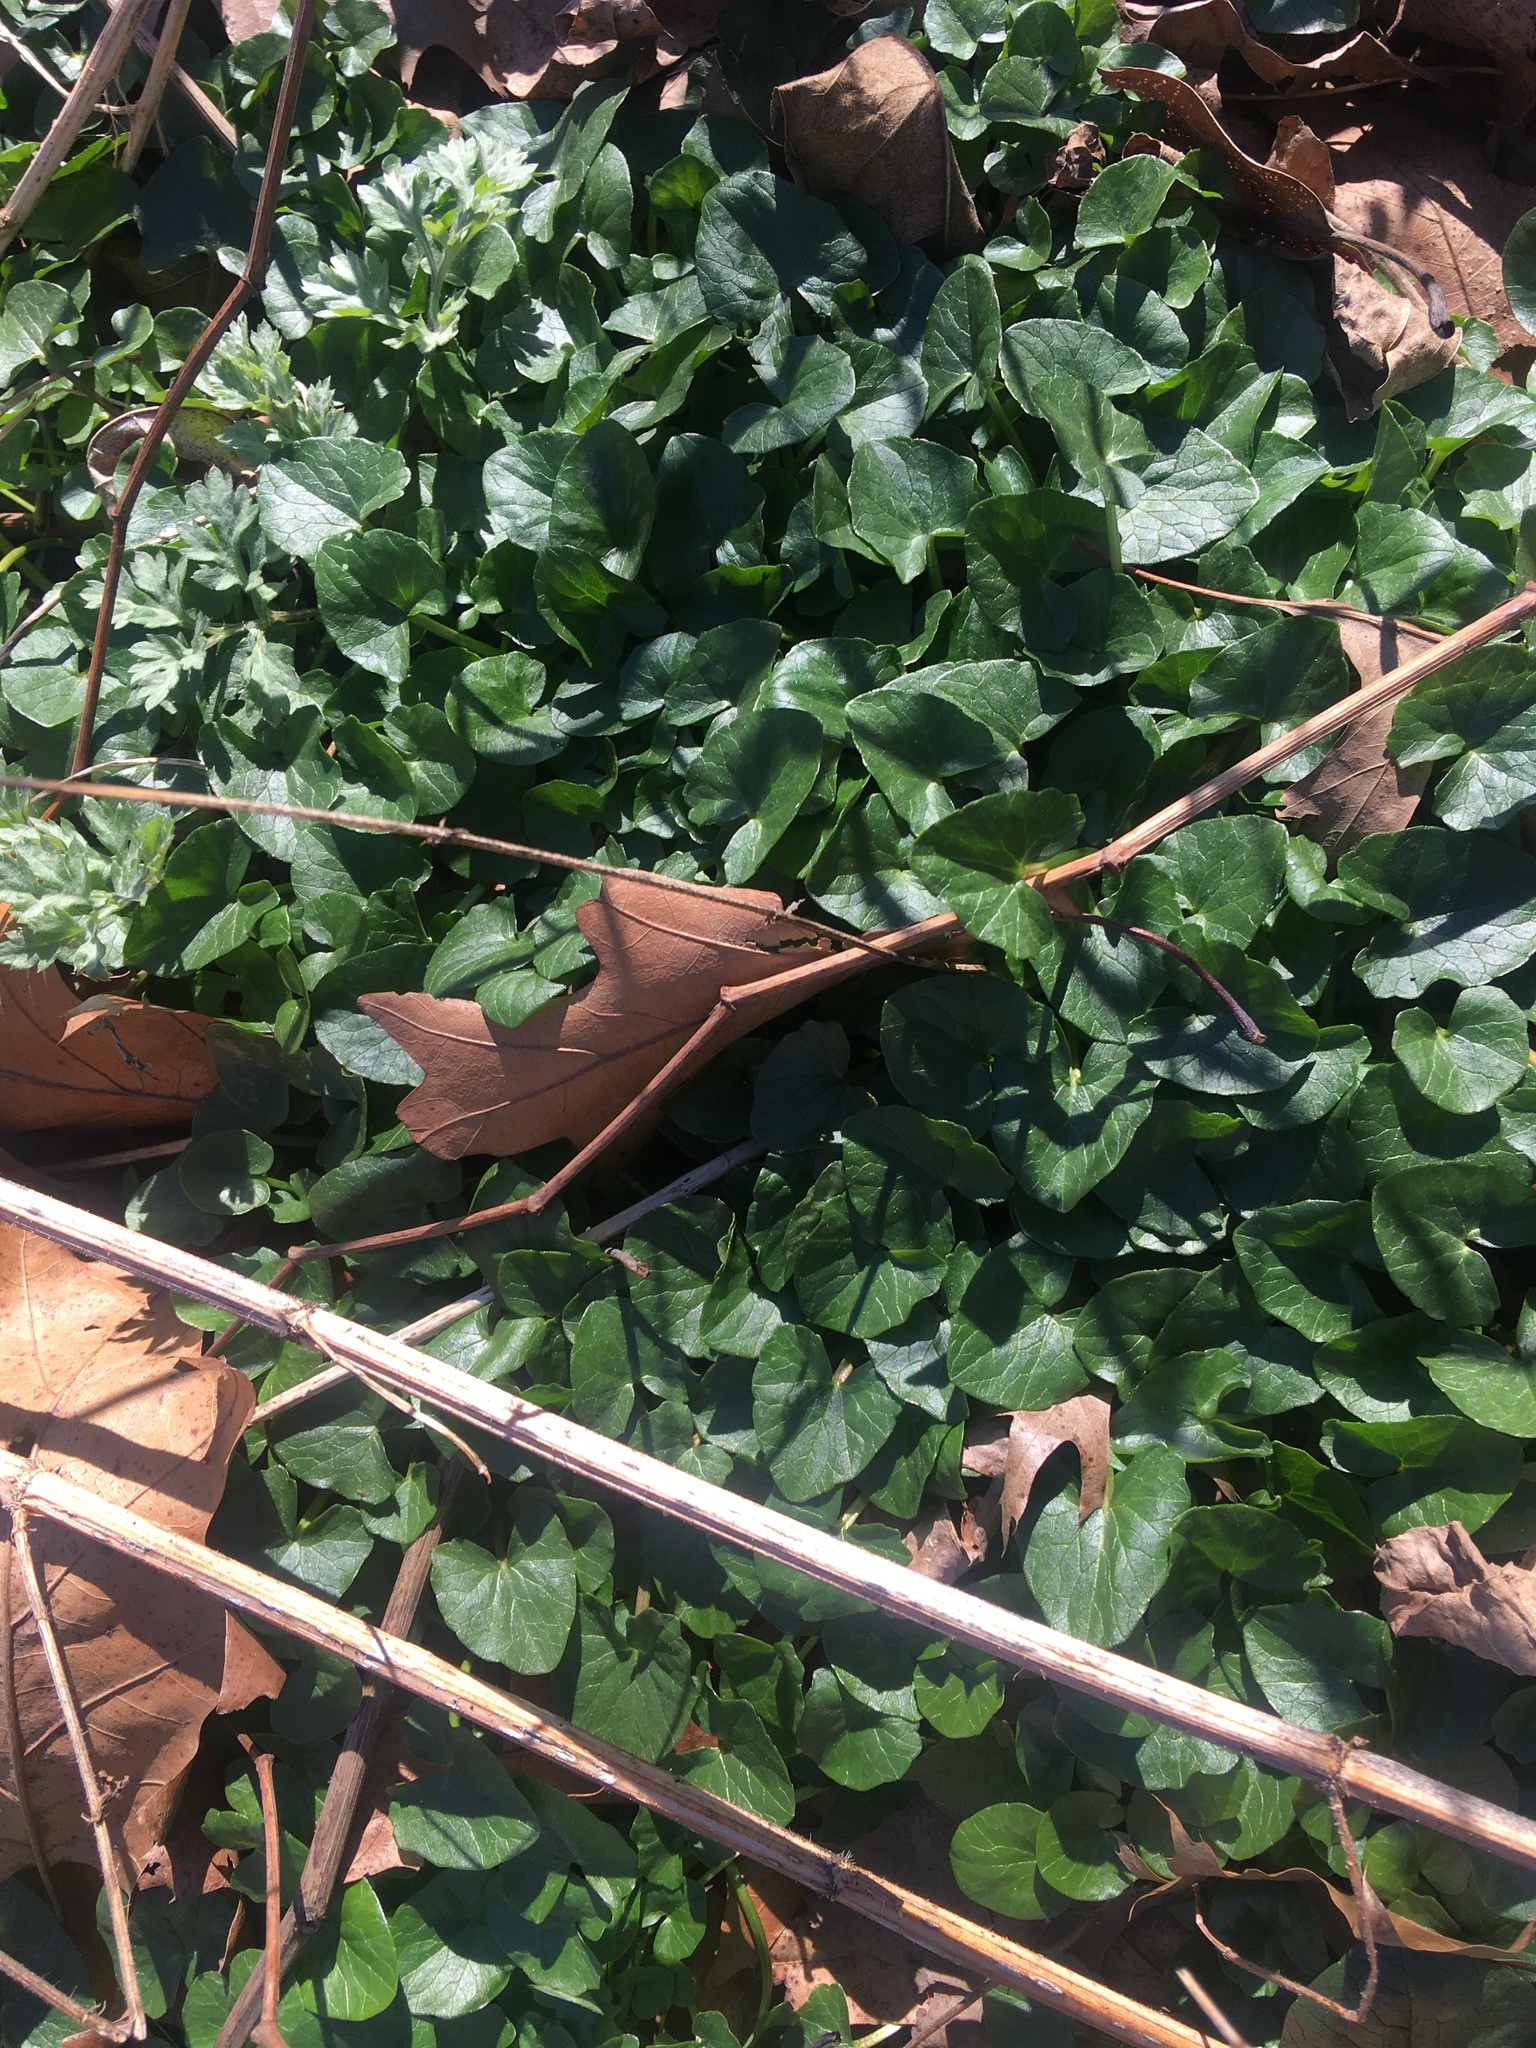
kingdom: Plantae
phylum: Tracheophyta
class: Magnoliopsida
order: Ranunculales
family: Ranunculaceae
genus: Ficaria
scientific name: Ficaria verna
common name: Lesser celandine
